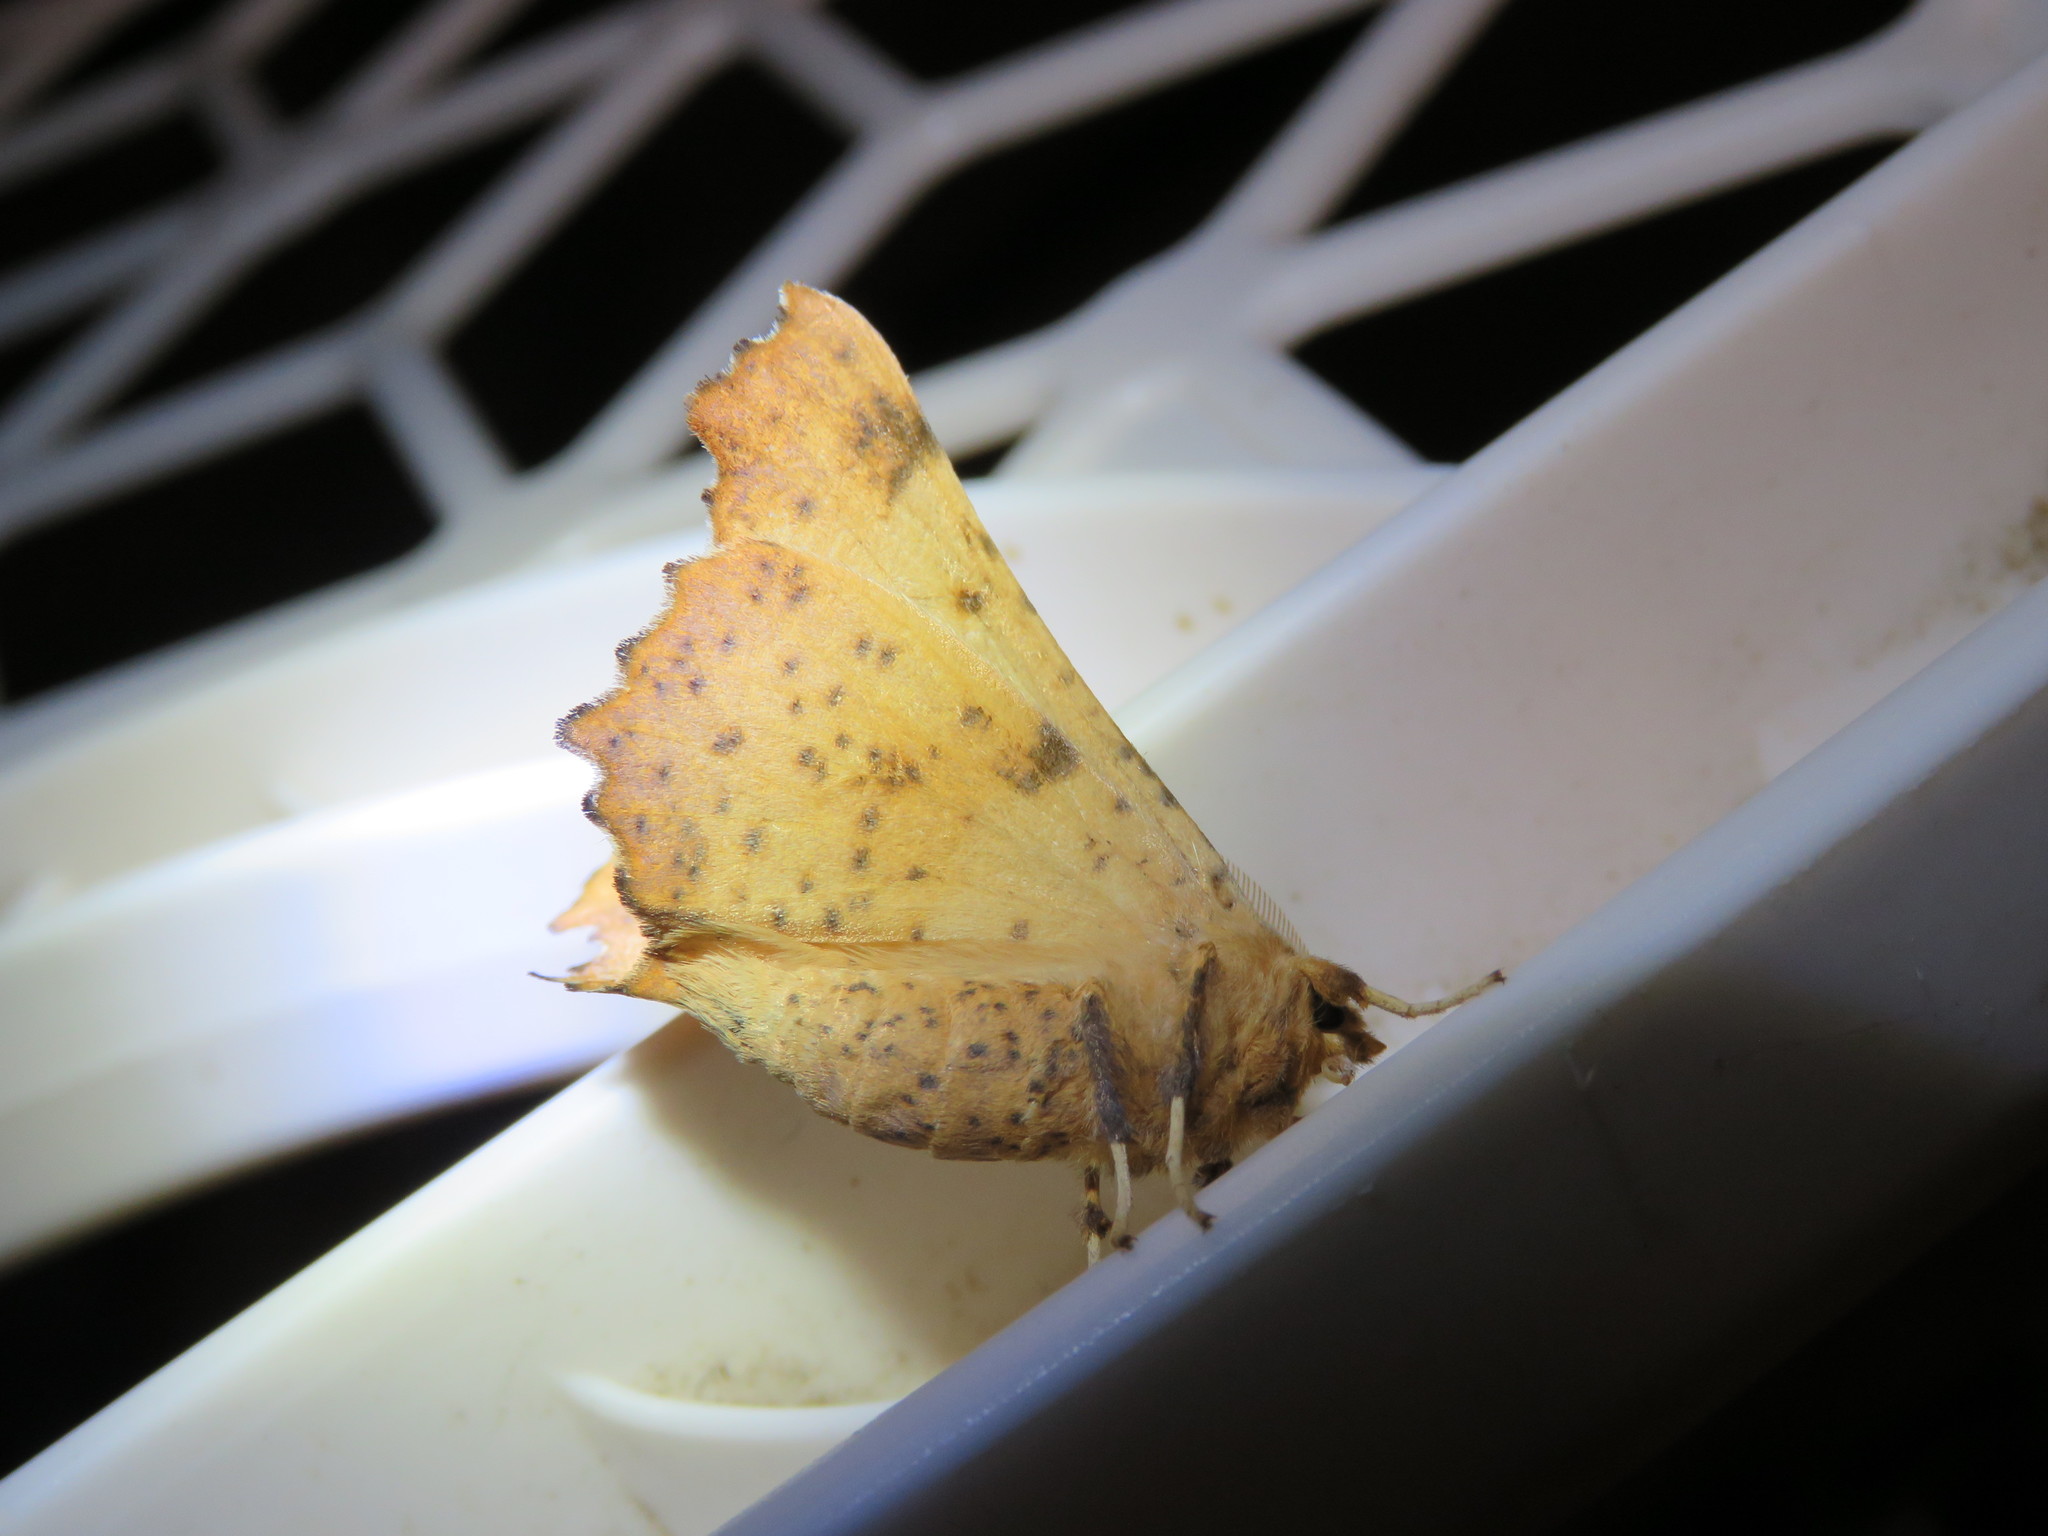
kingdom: Animalia
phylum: Arthropoda
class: Insecta
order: Lepidoptera
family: Geometridae
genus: Ennomos
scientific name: Ennomos magnaria
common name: Maple spanworm
